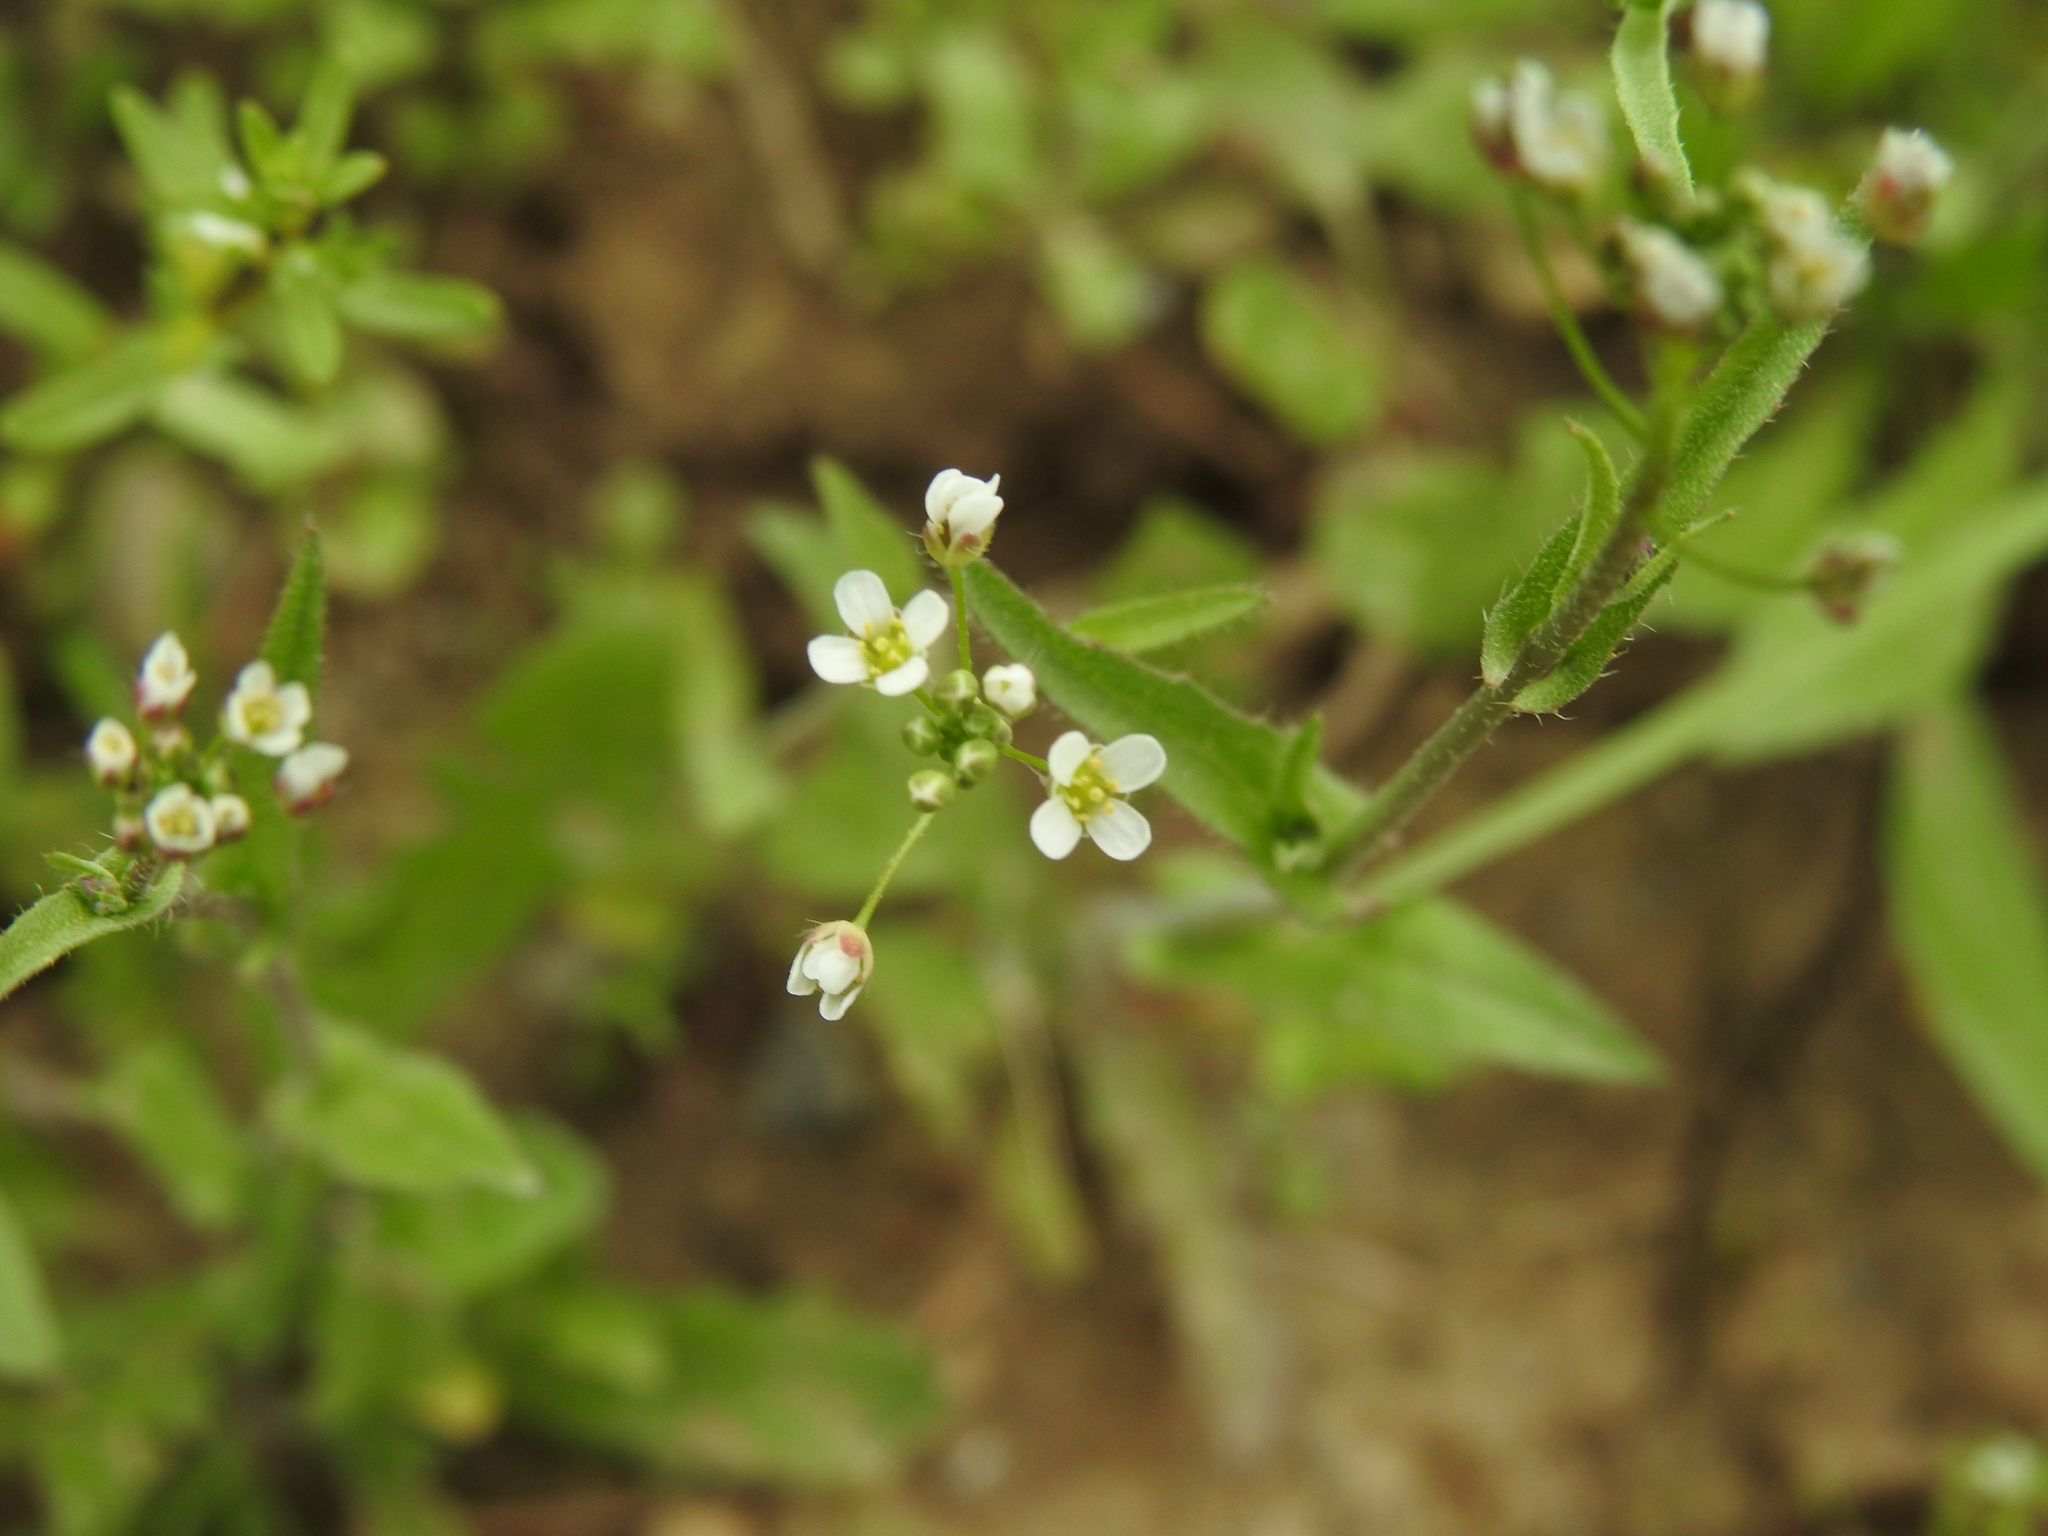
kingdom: Plantae
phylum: Tracheophyta
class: Magnoliopsida
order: Brassicales
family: Brassicaceae
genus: Capsella
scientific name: Capsella bursa-pastoris
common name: Shepherd's purse
